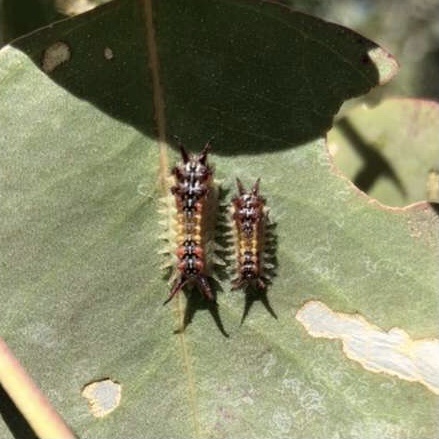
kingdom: Animalia
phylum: Arthropoda
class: Insecta
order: Lepidoptera
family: Limacodidae
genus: Doratifera
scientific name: Doratifera quadriguttata
